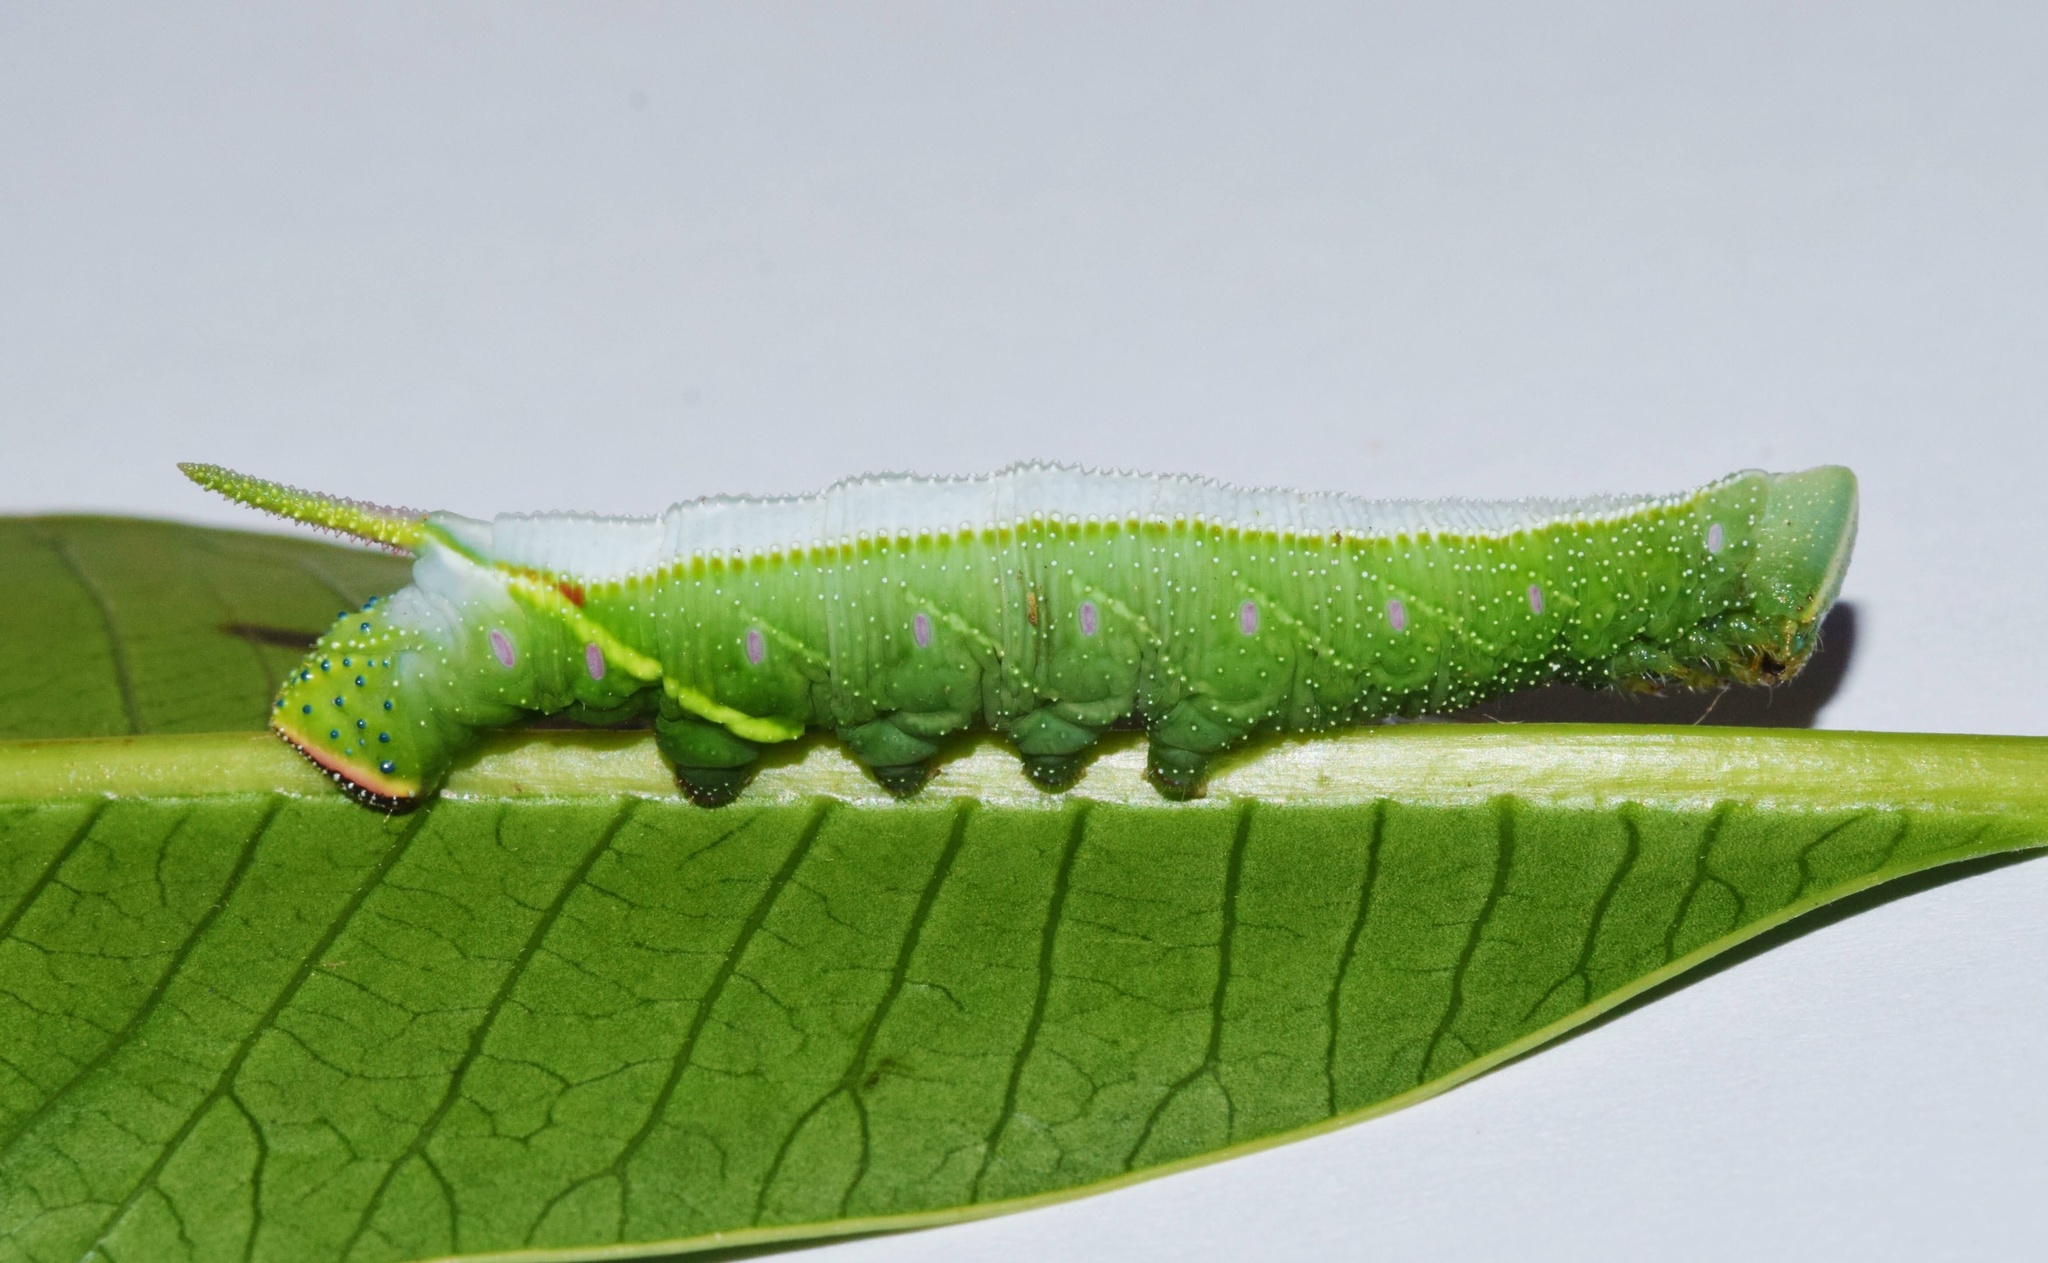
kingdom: Animalia
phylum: Arthropoda
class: Insecta
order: Lepidoptera
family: Sphingidae
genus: Pseudoclanis
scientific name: Pseudoclanis postica
